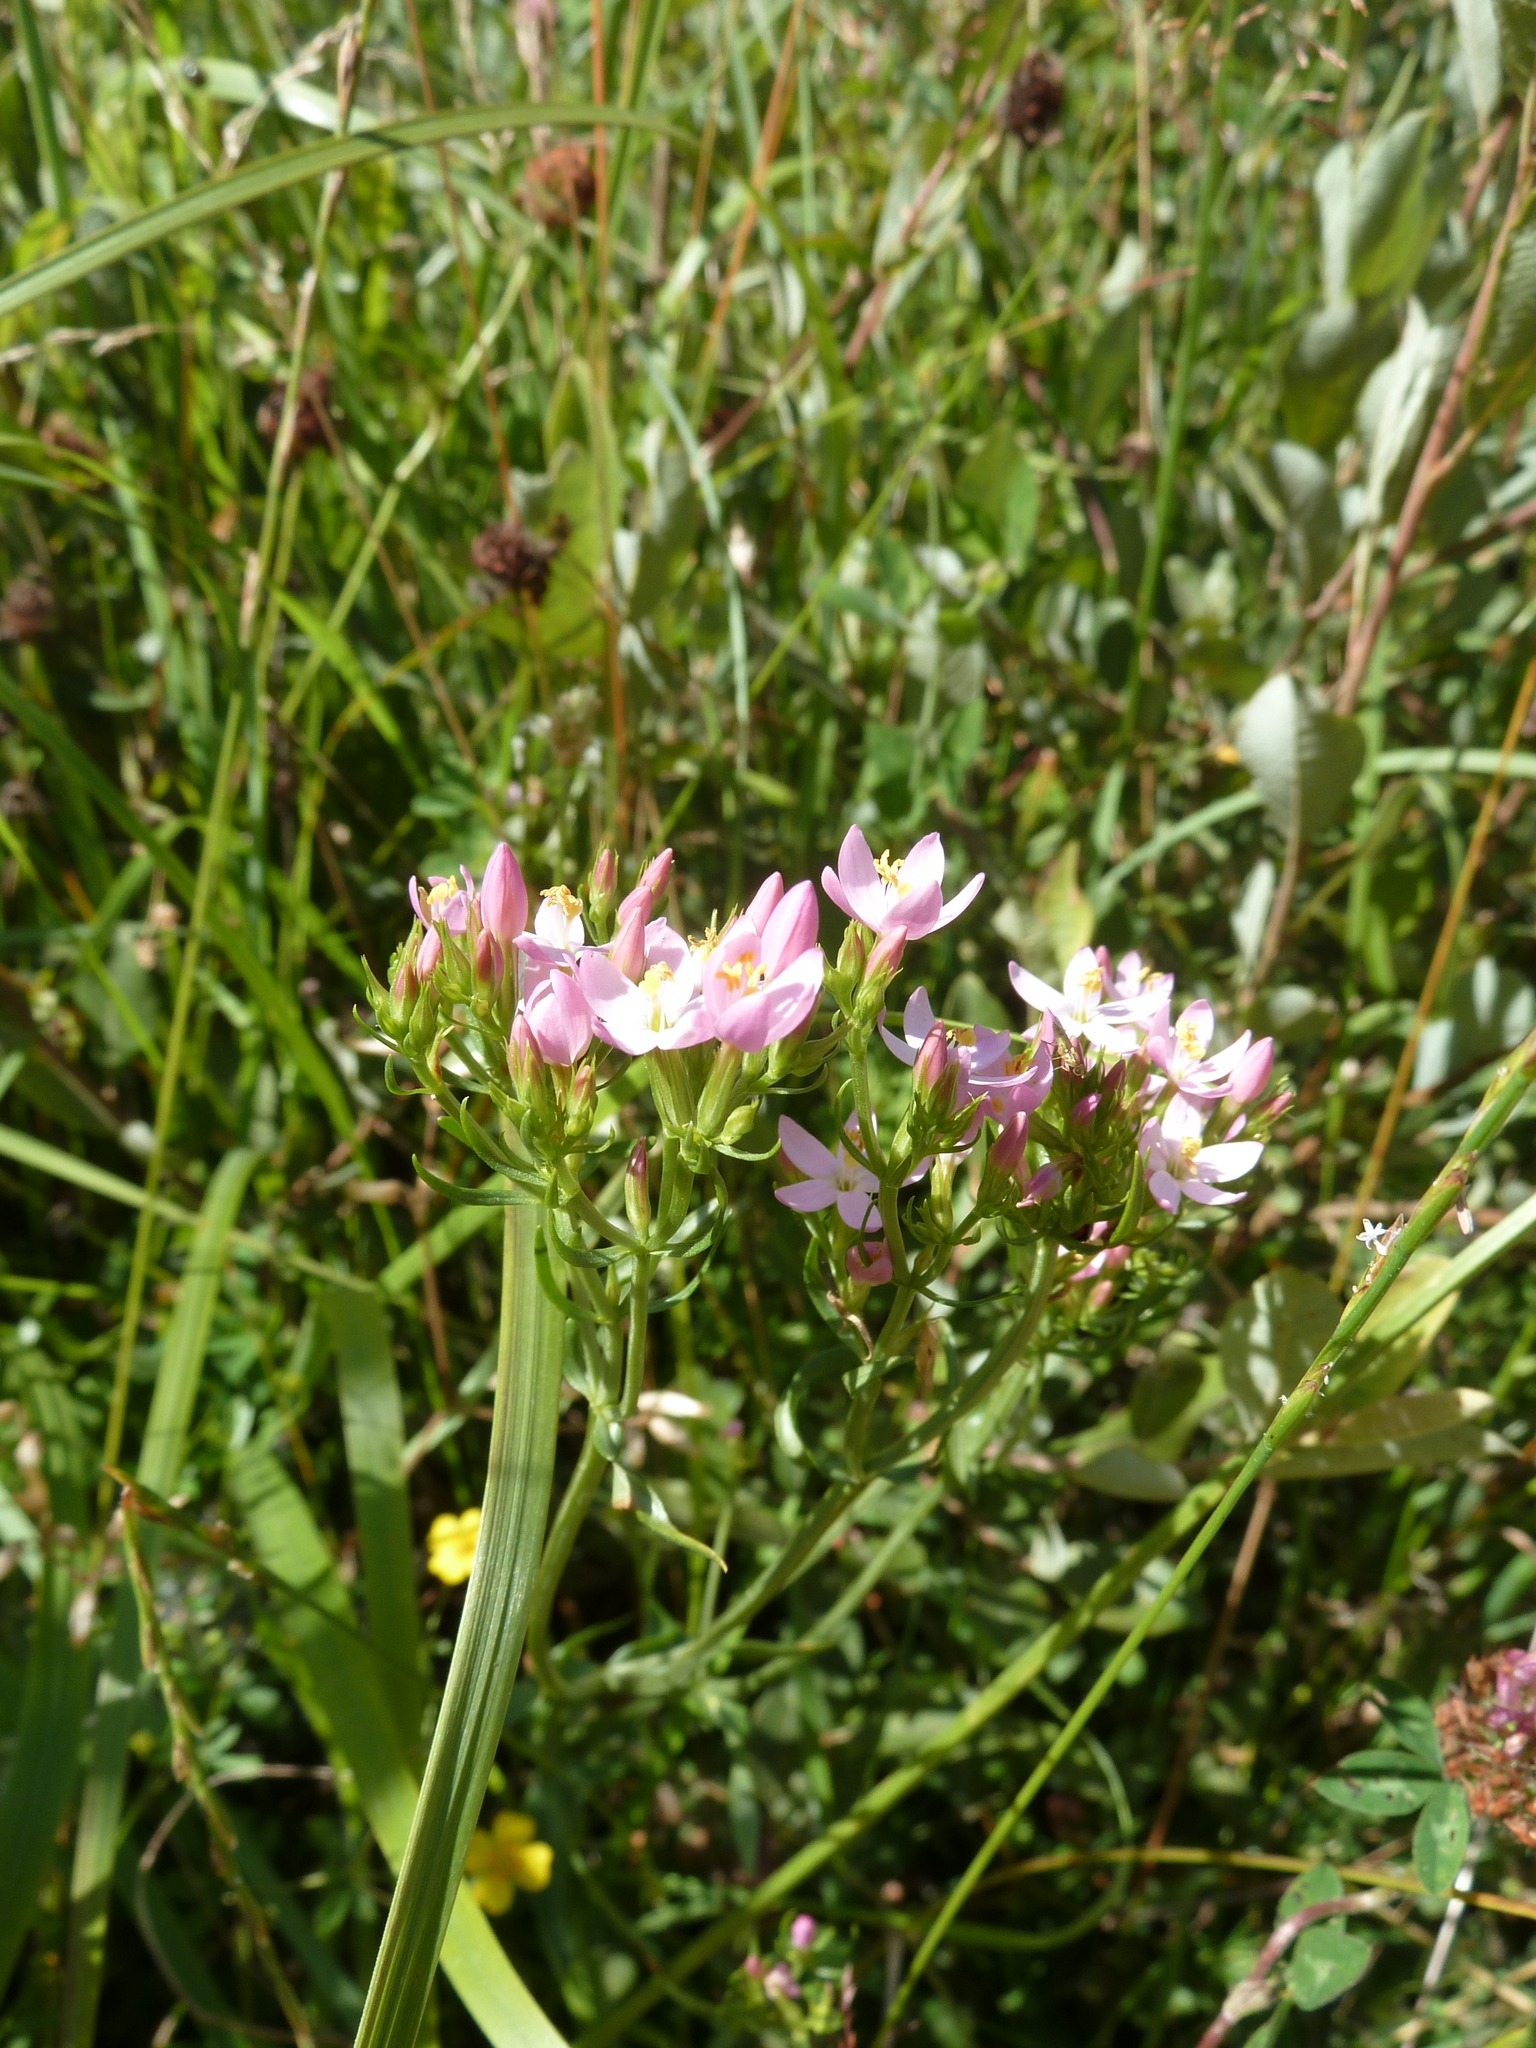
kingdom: Plantae
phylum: Tracheophyta
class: Magnoliopsida
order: Gentianales
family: Gentianaceae
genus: Centaurium
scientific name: Centaurium erythraea
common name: Common centaury
